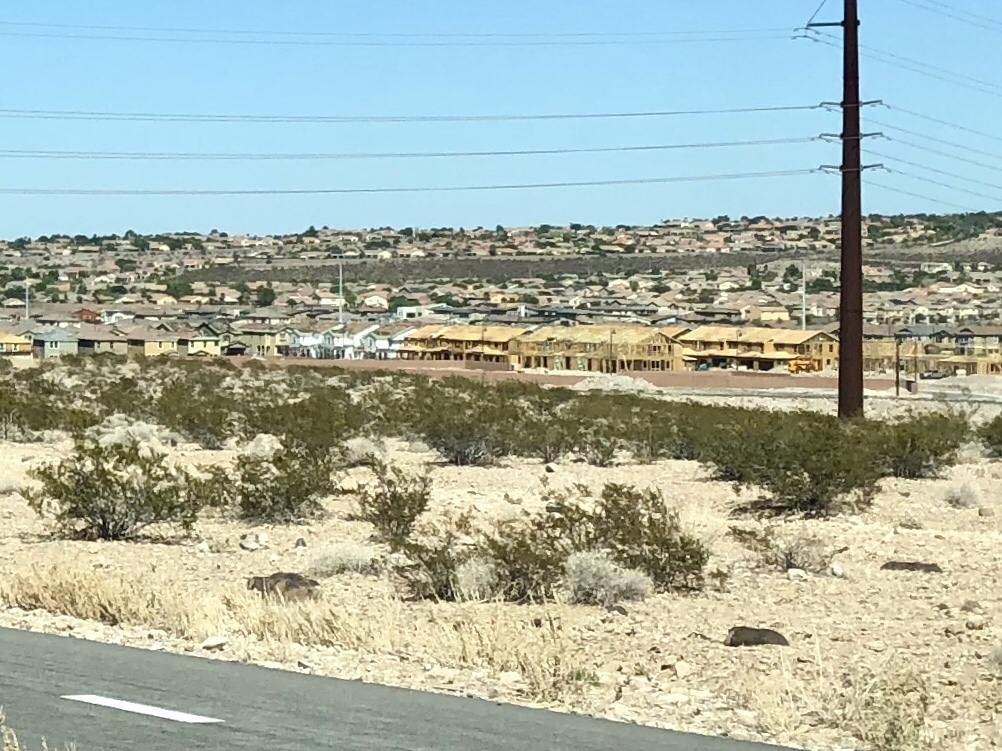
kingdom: Plantae
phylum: Tracheophyta
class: Magnoliopsida
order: Zygophyllales
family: Zygophyllaceae
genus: Larrea
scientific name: Larrea tridentata
